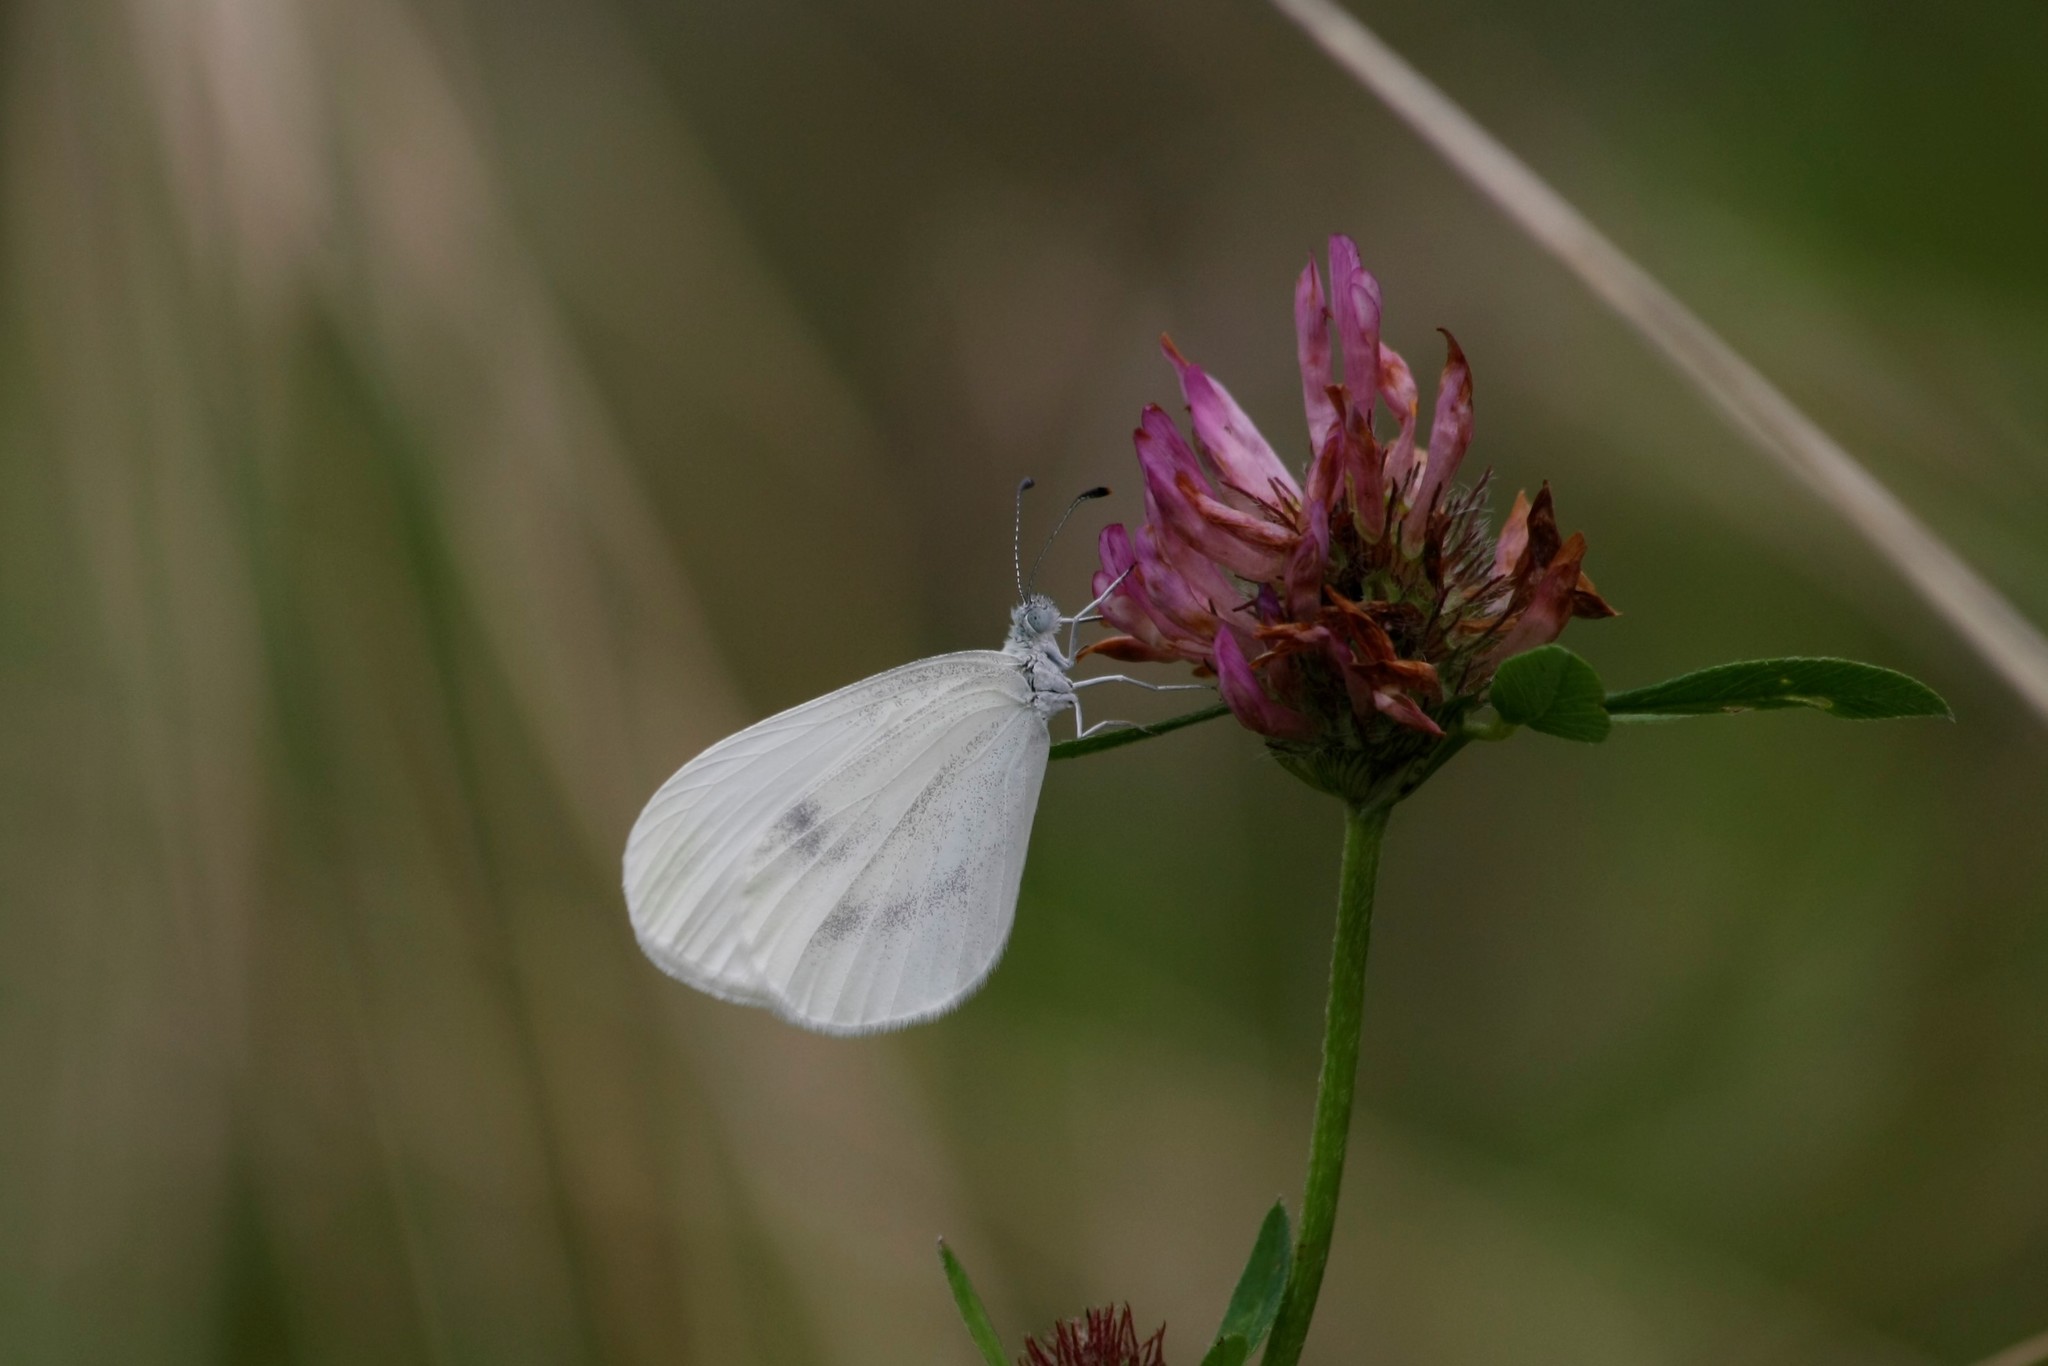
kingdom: Animalia
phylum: Arthropoda
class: Insecta
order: Lepidoptera
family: Pieridae
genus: Leptidea
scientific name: Leptidea
